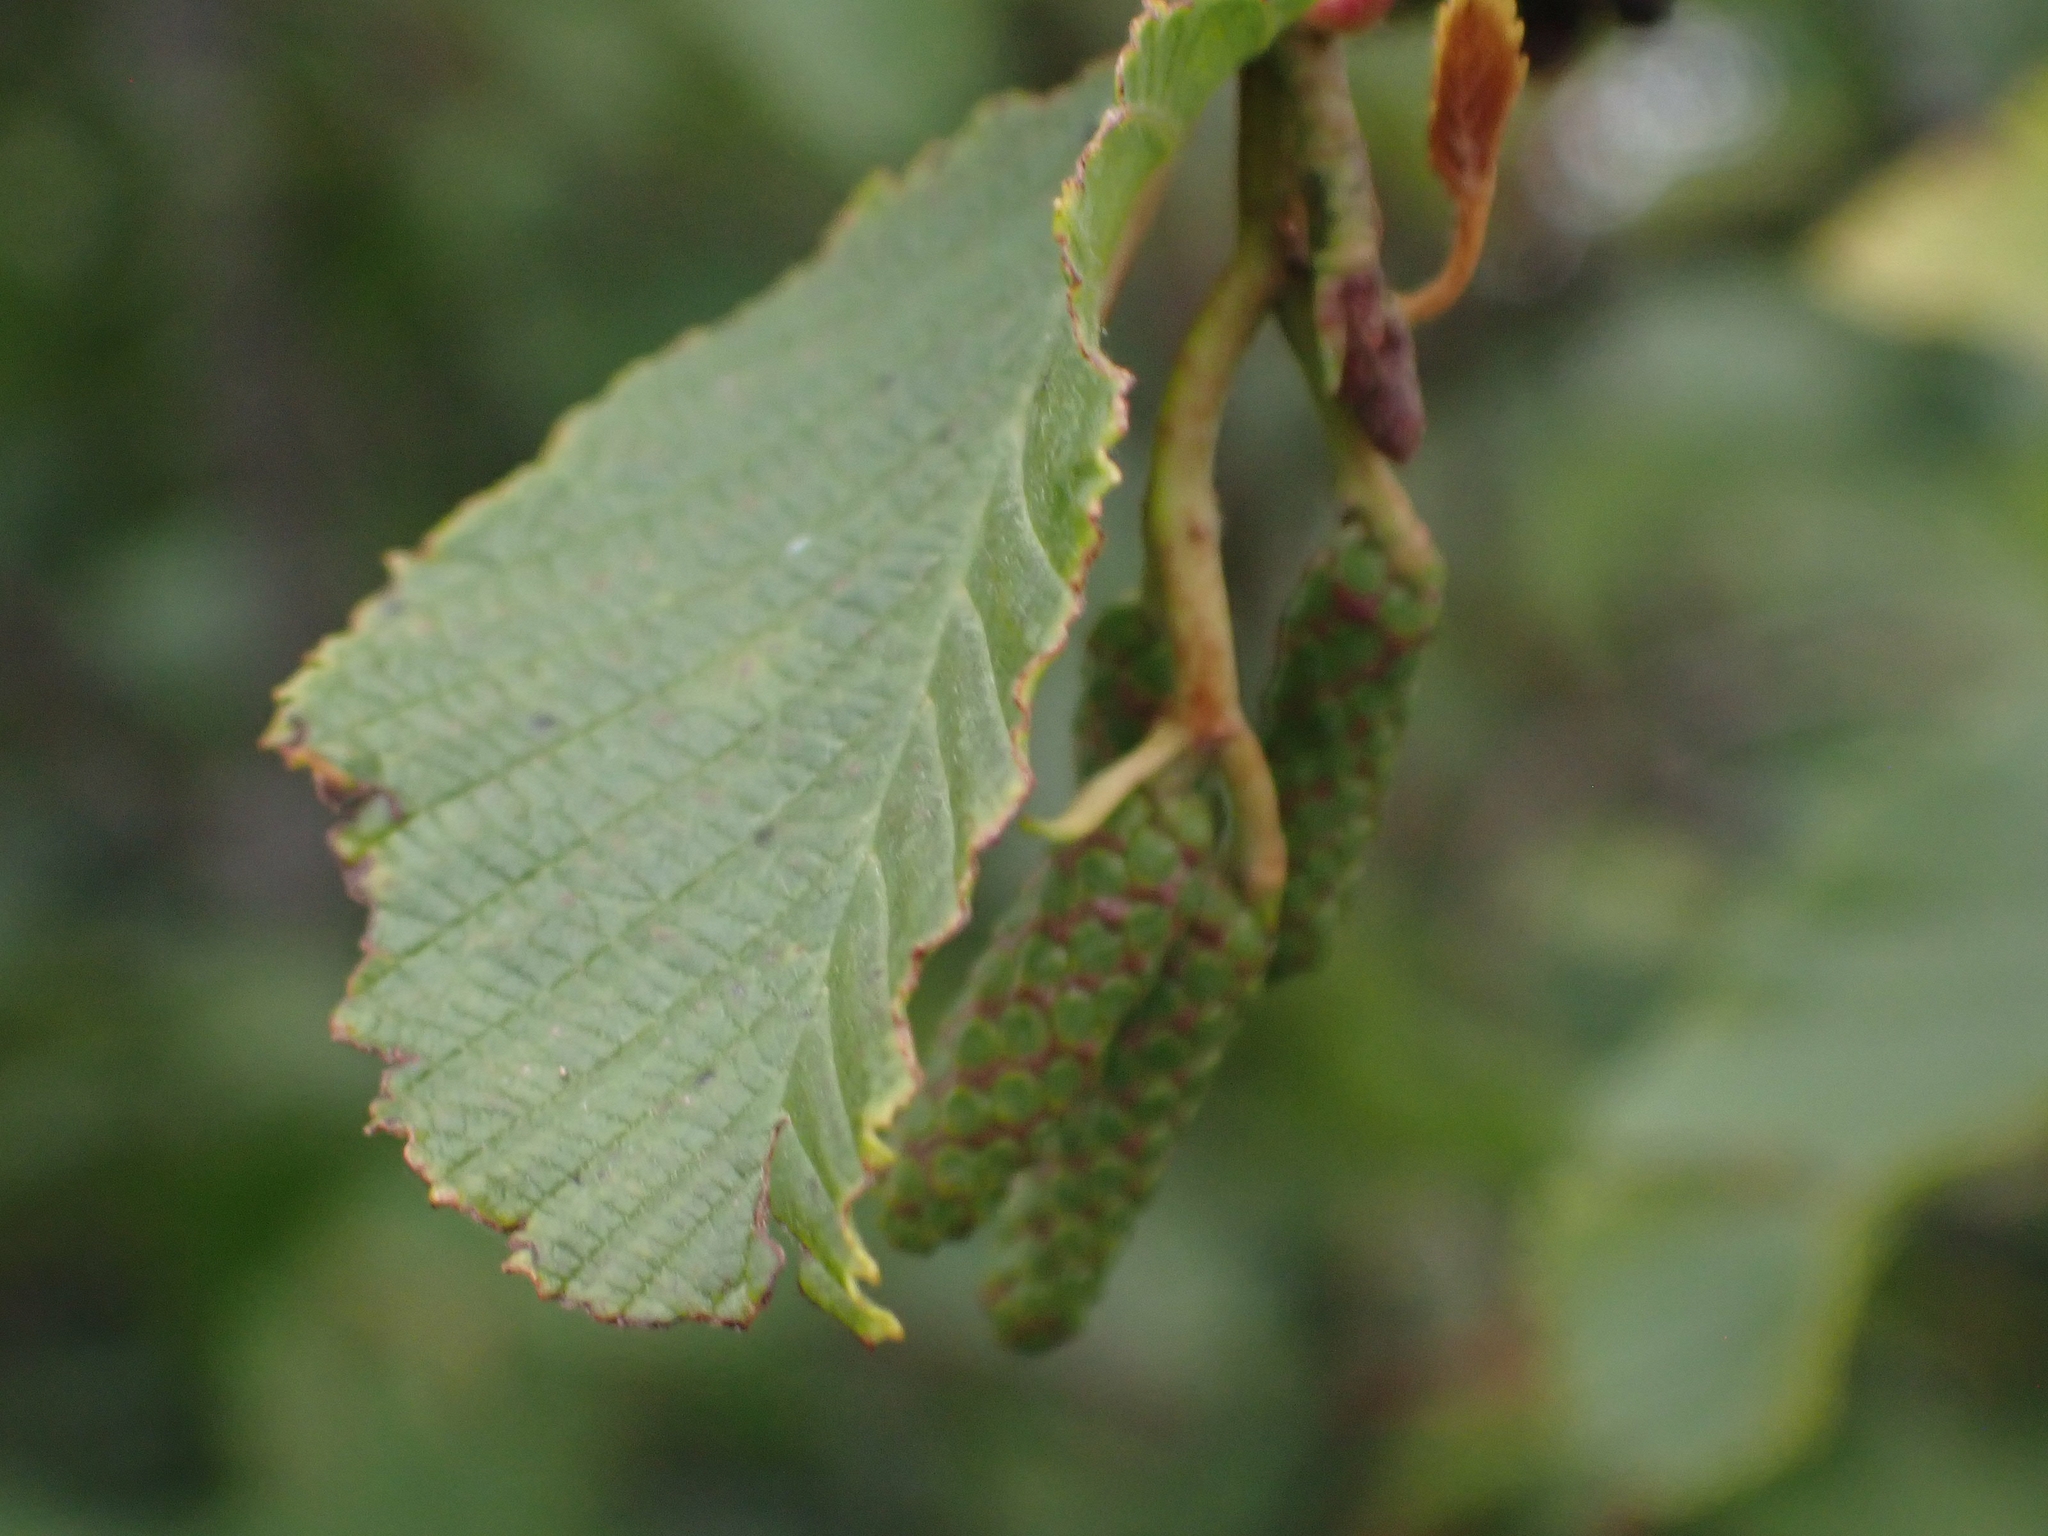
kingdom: Plantae
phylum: Tracheophyta
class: Magnoliopsida
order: Fagales
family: Betulaceae
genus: Alnus
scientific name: Alnus alnobetula
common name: Green alder
